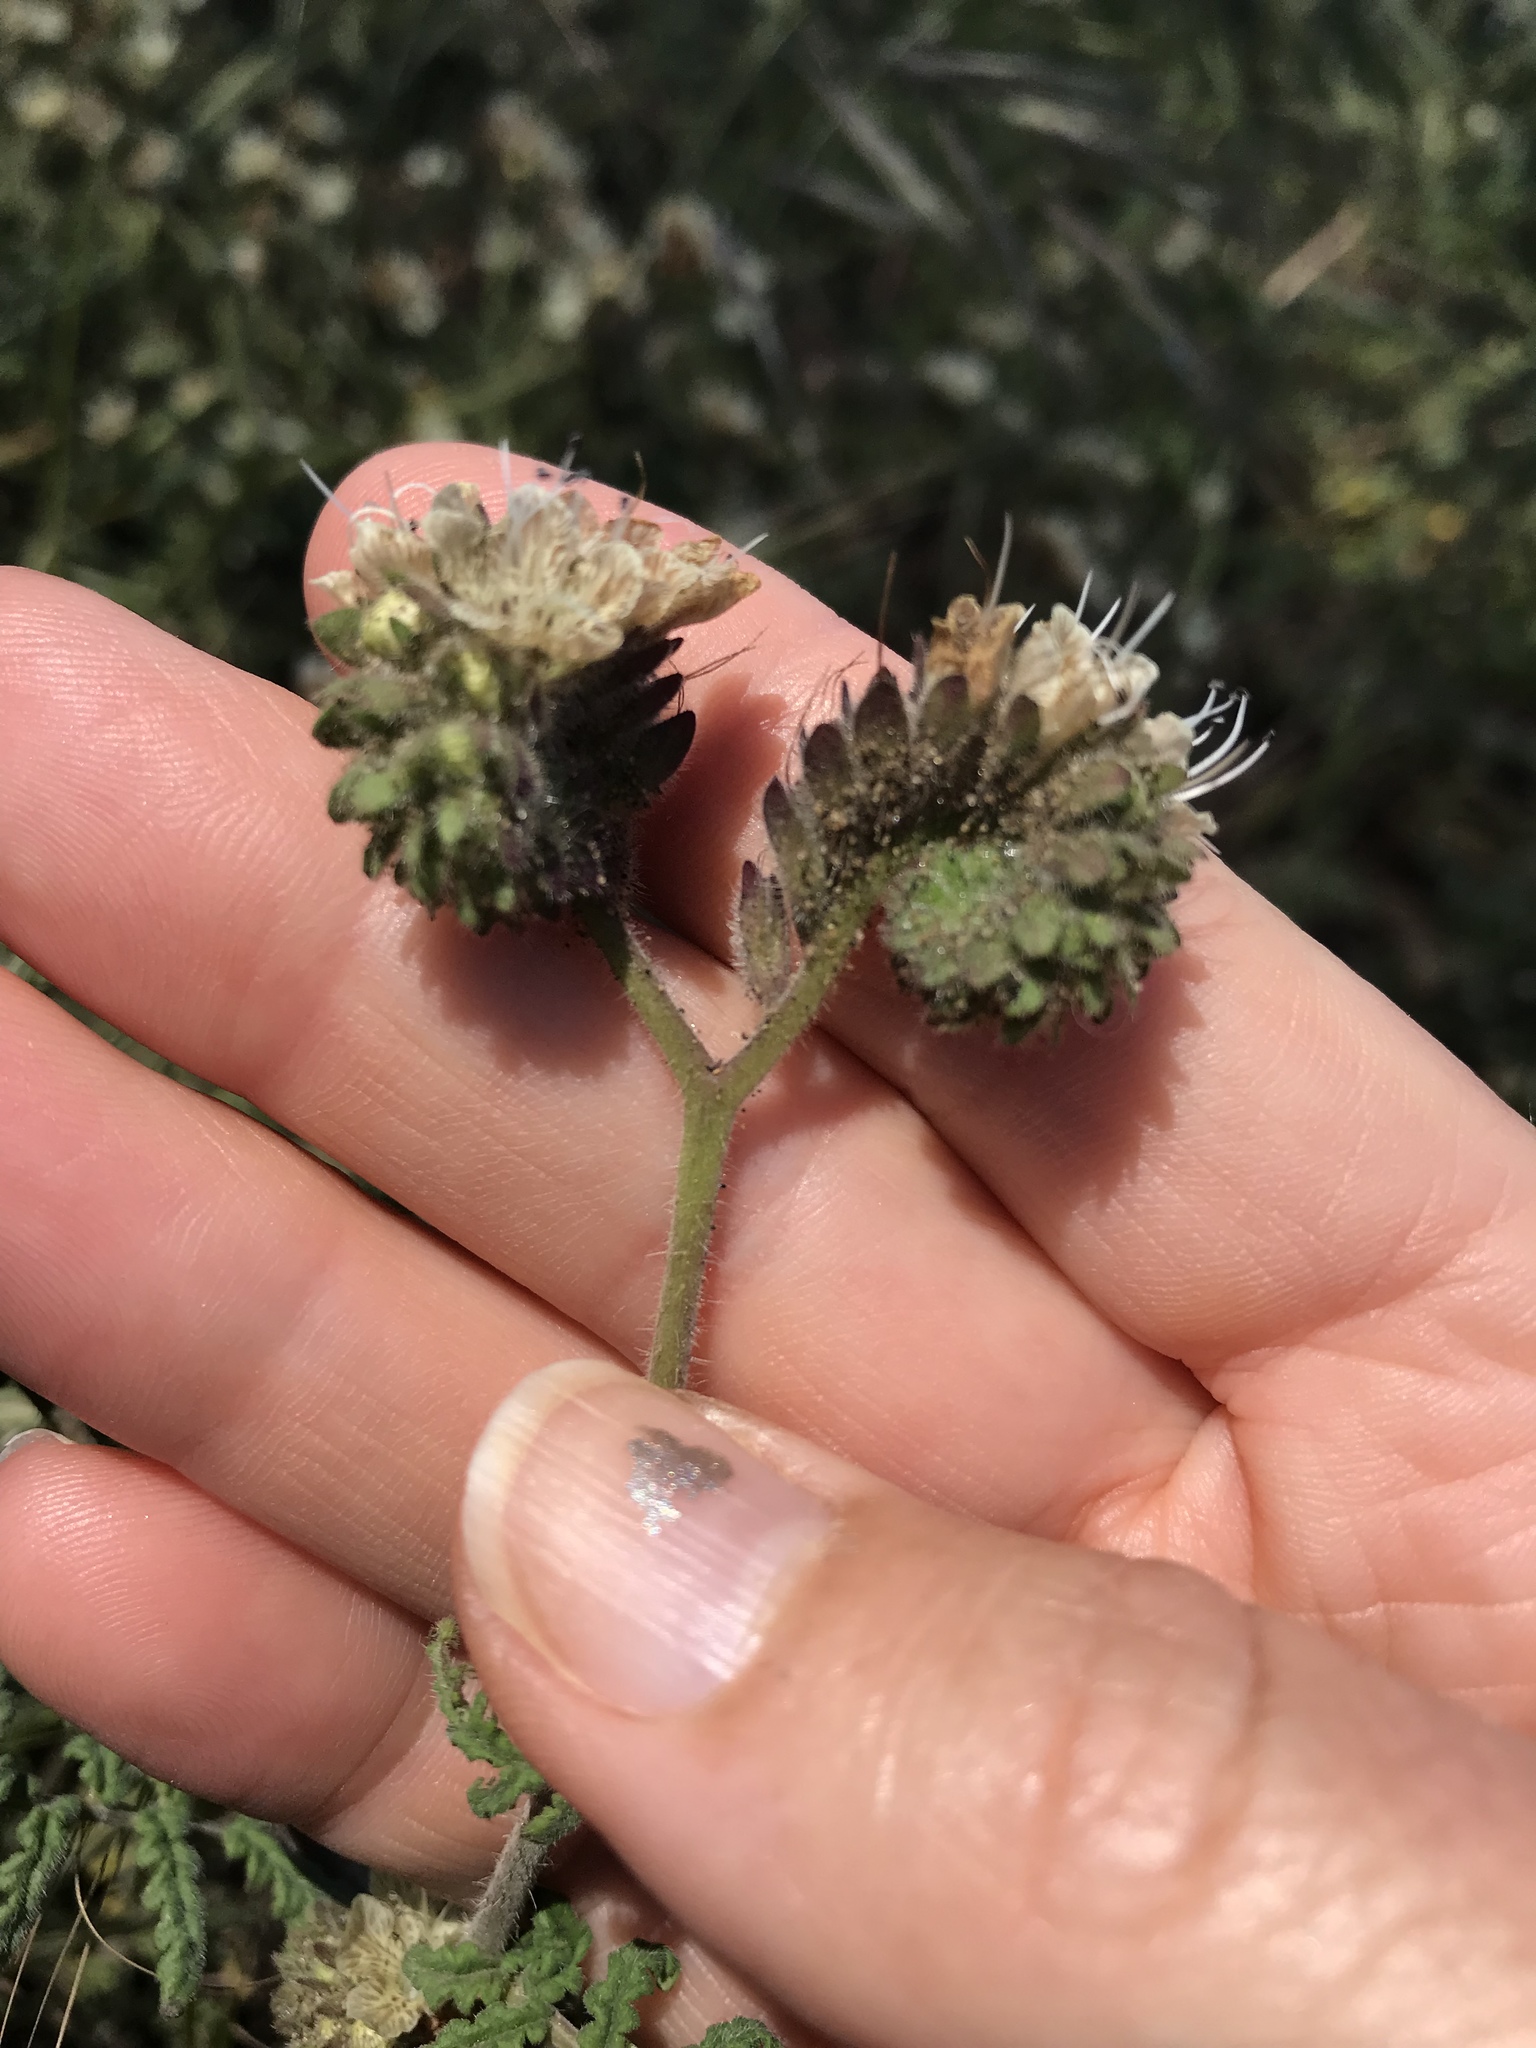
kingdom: Plantae
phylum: Tracheophyta
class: Magnoliopsida
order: Boraginales
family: Hydrophyllaceae
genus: Phacelia
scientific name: Phacelia distans
